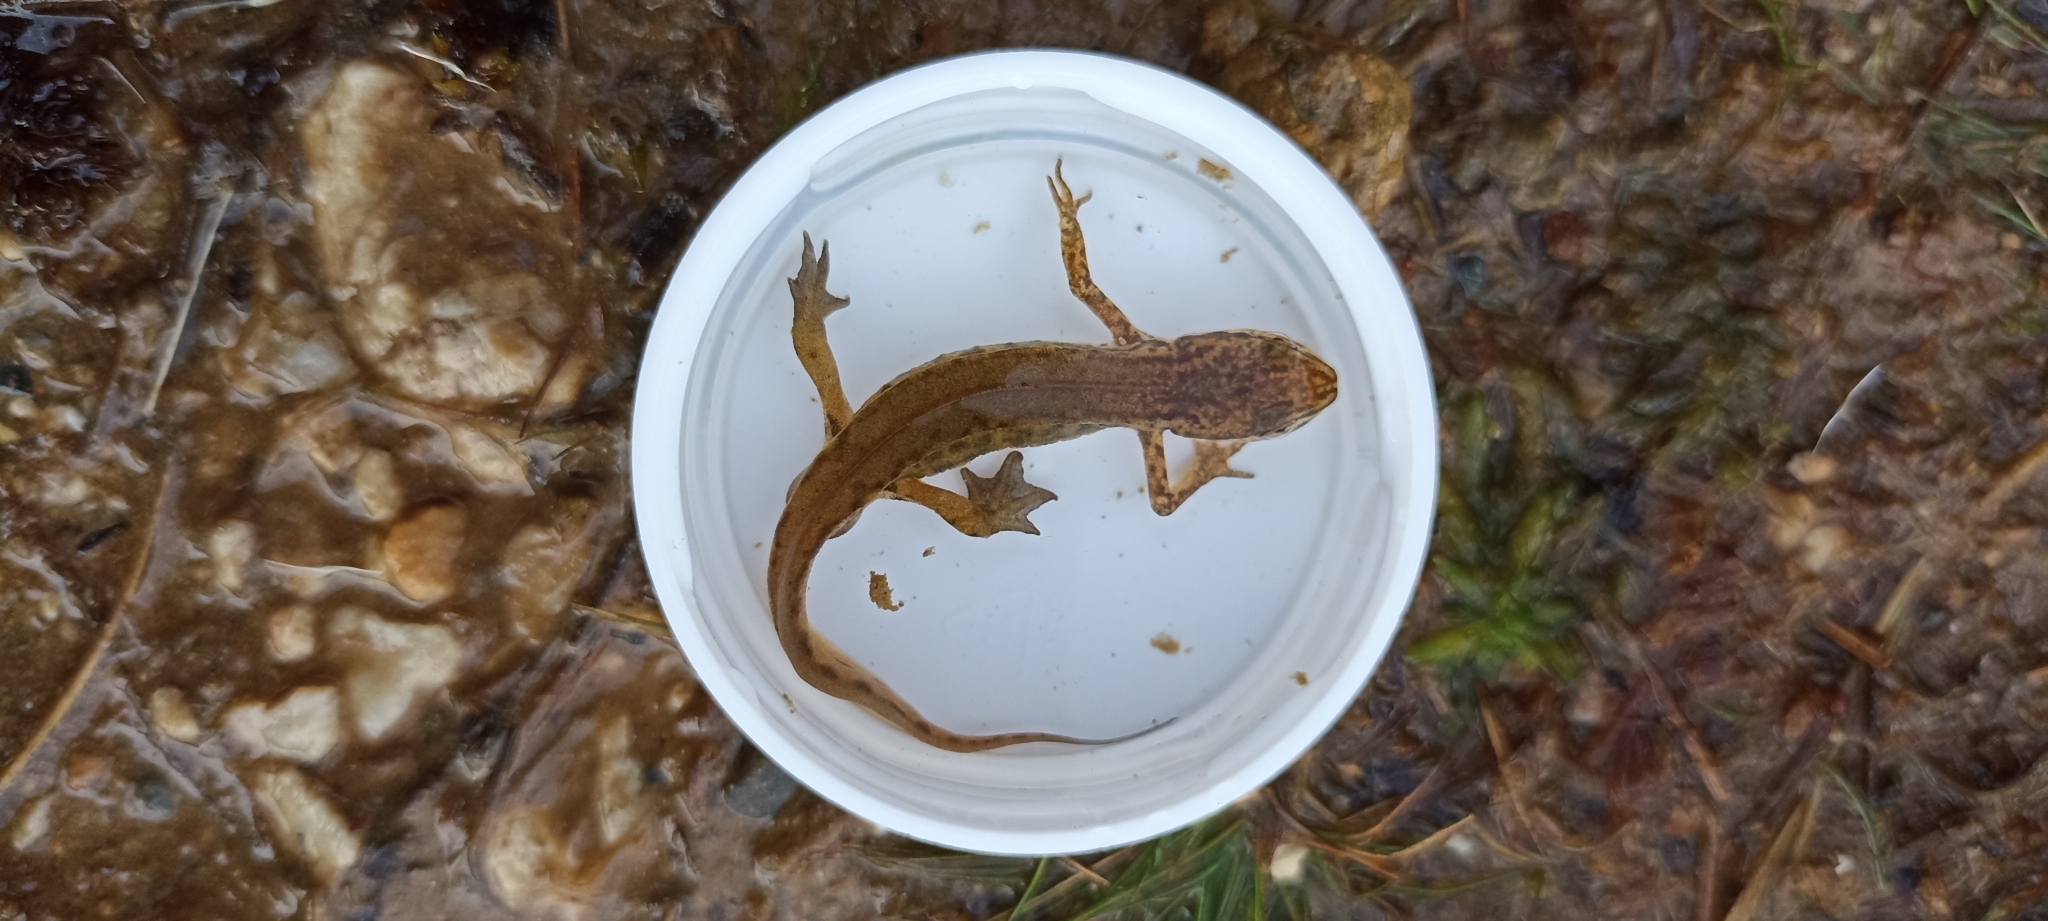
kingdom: Animalia
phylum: Chordata
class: Amphibia
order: Caudata
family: Salamandridae
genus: Lissotriton
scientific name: Lissotriton helveticus
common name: Palmate newt
